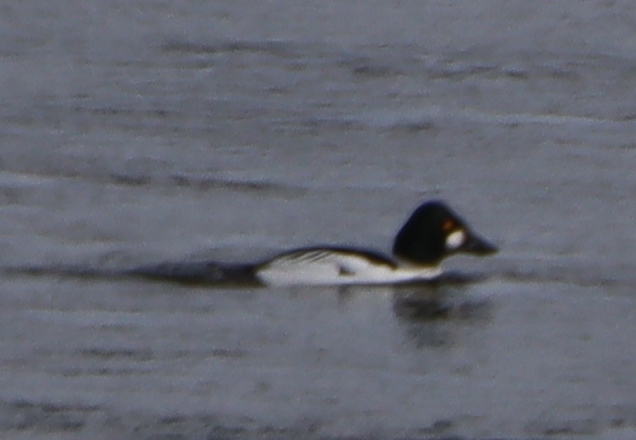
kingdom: Animalia
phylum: Chordata
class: Aves
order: Anseriformes
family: Anatidae
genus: Bucephala
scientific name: Bucephala clangula
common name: Common goldeneye
